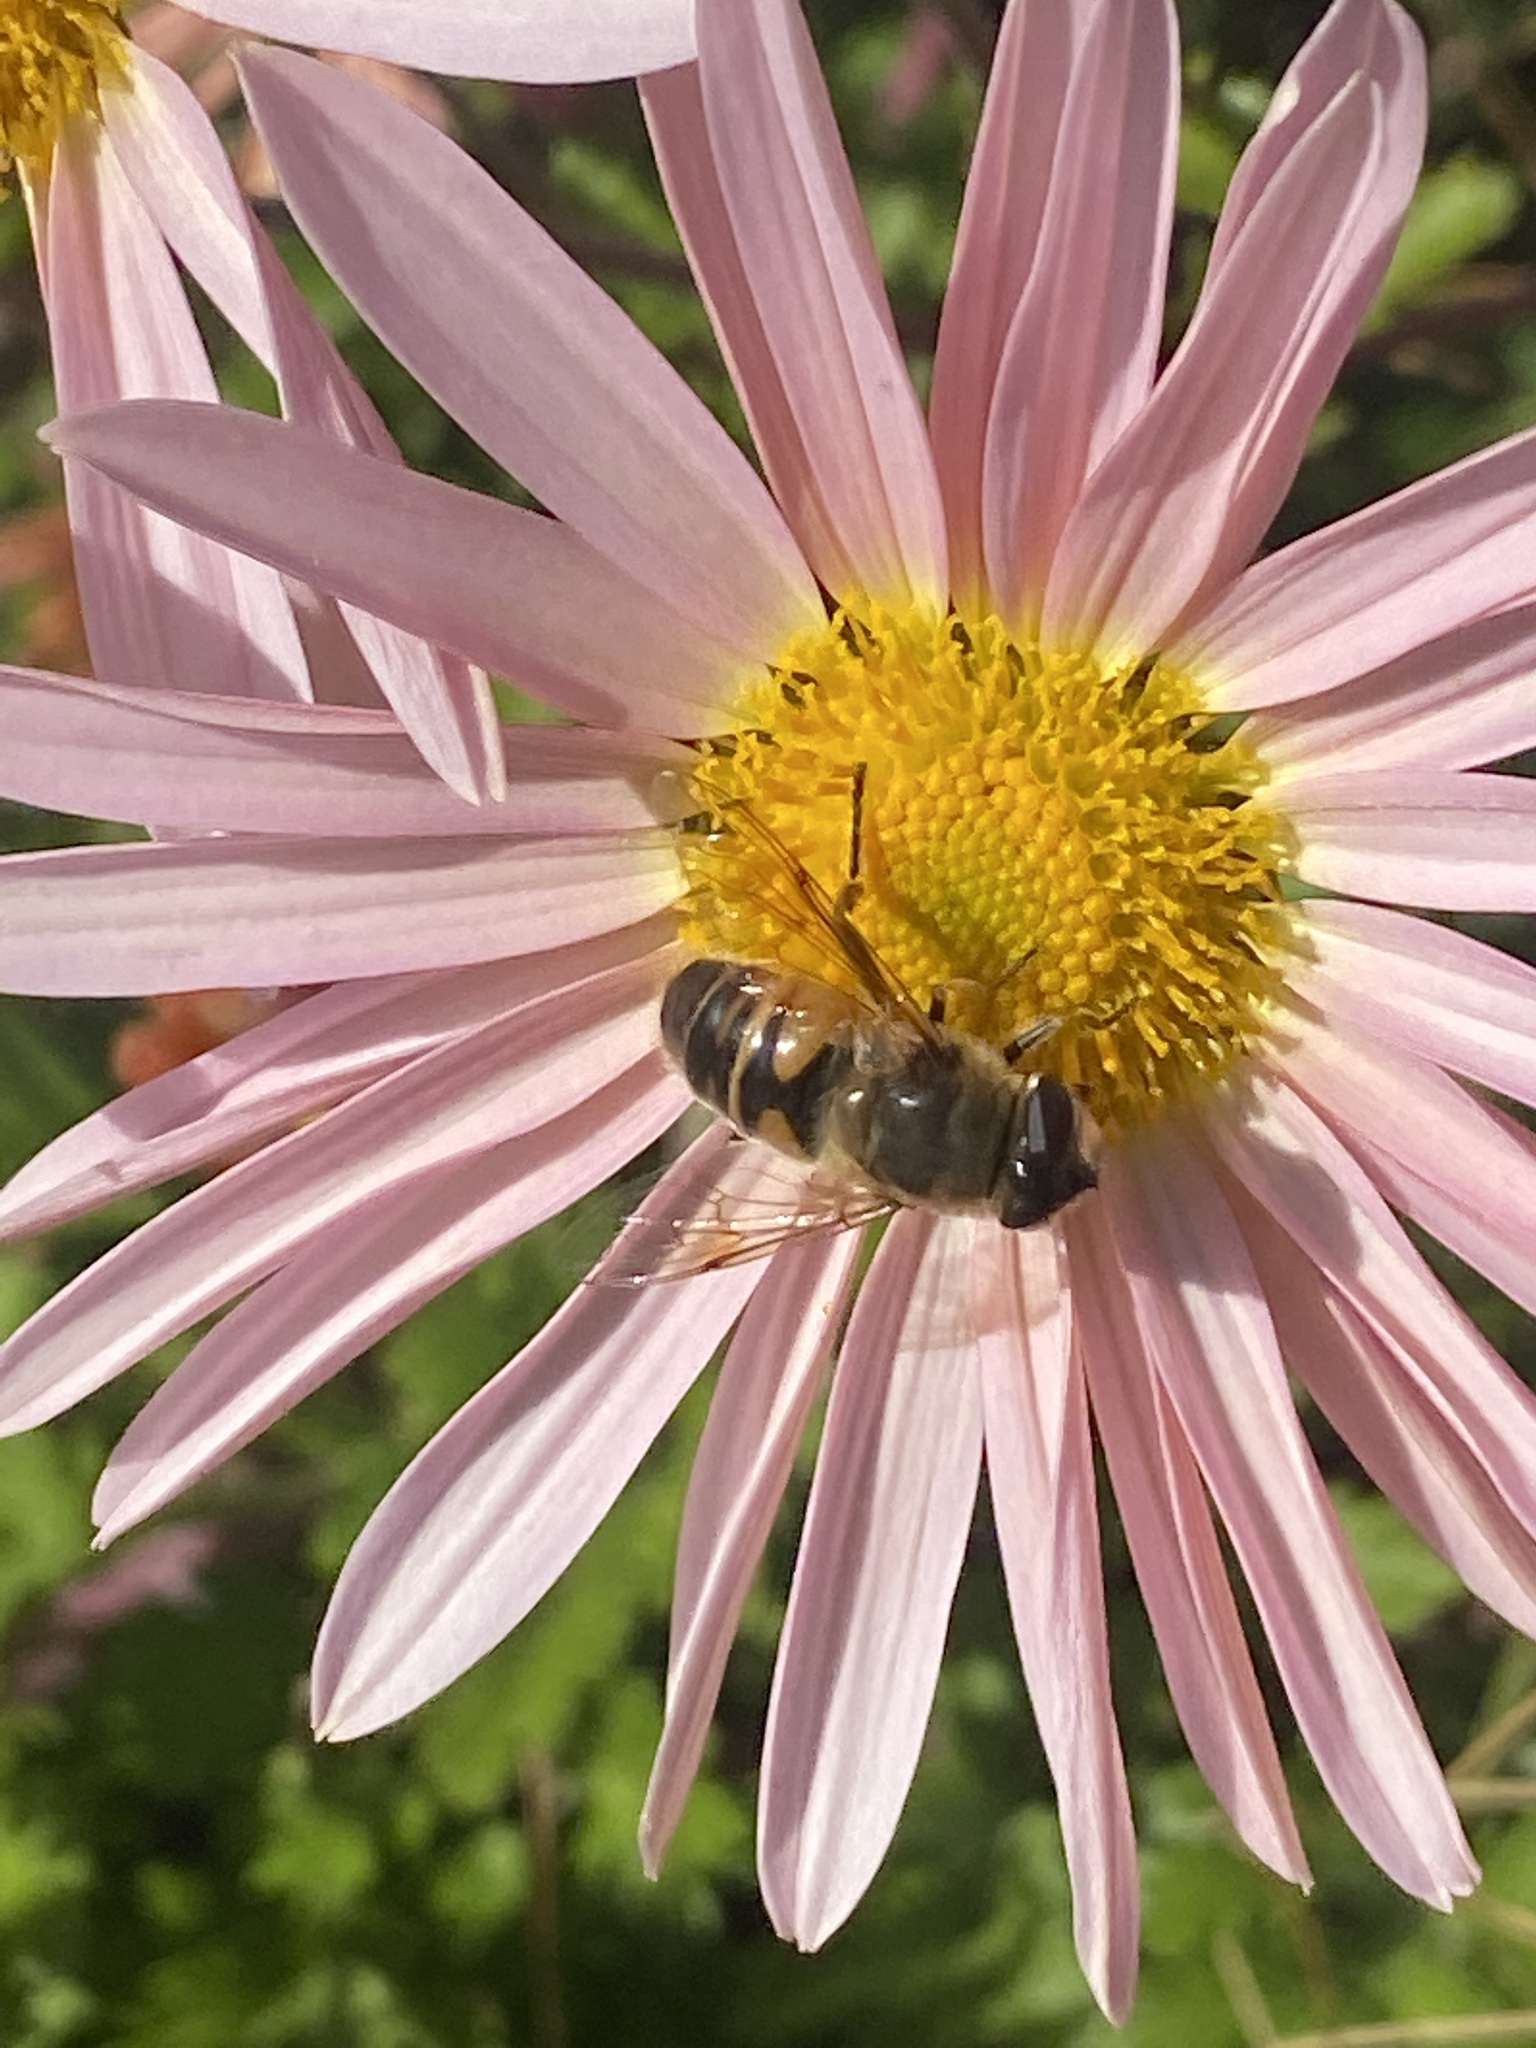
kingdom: Animalia
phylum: Arthropoda
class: Insecta
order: Diptera
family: Syrphidae
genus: Eristalis
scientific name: Eristalis tenax
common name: Drone fly
